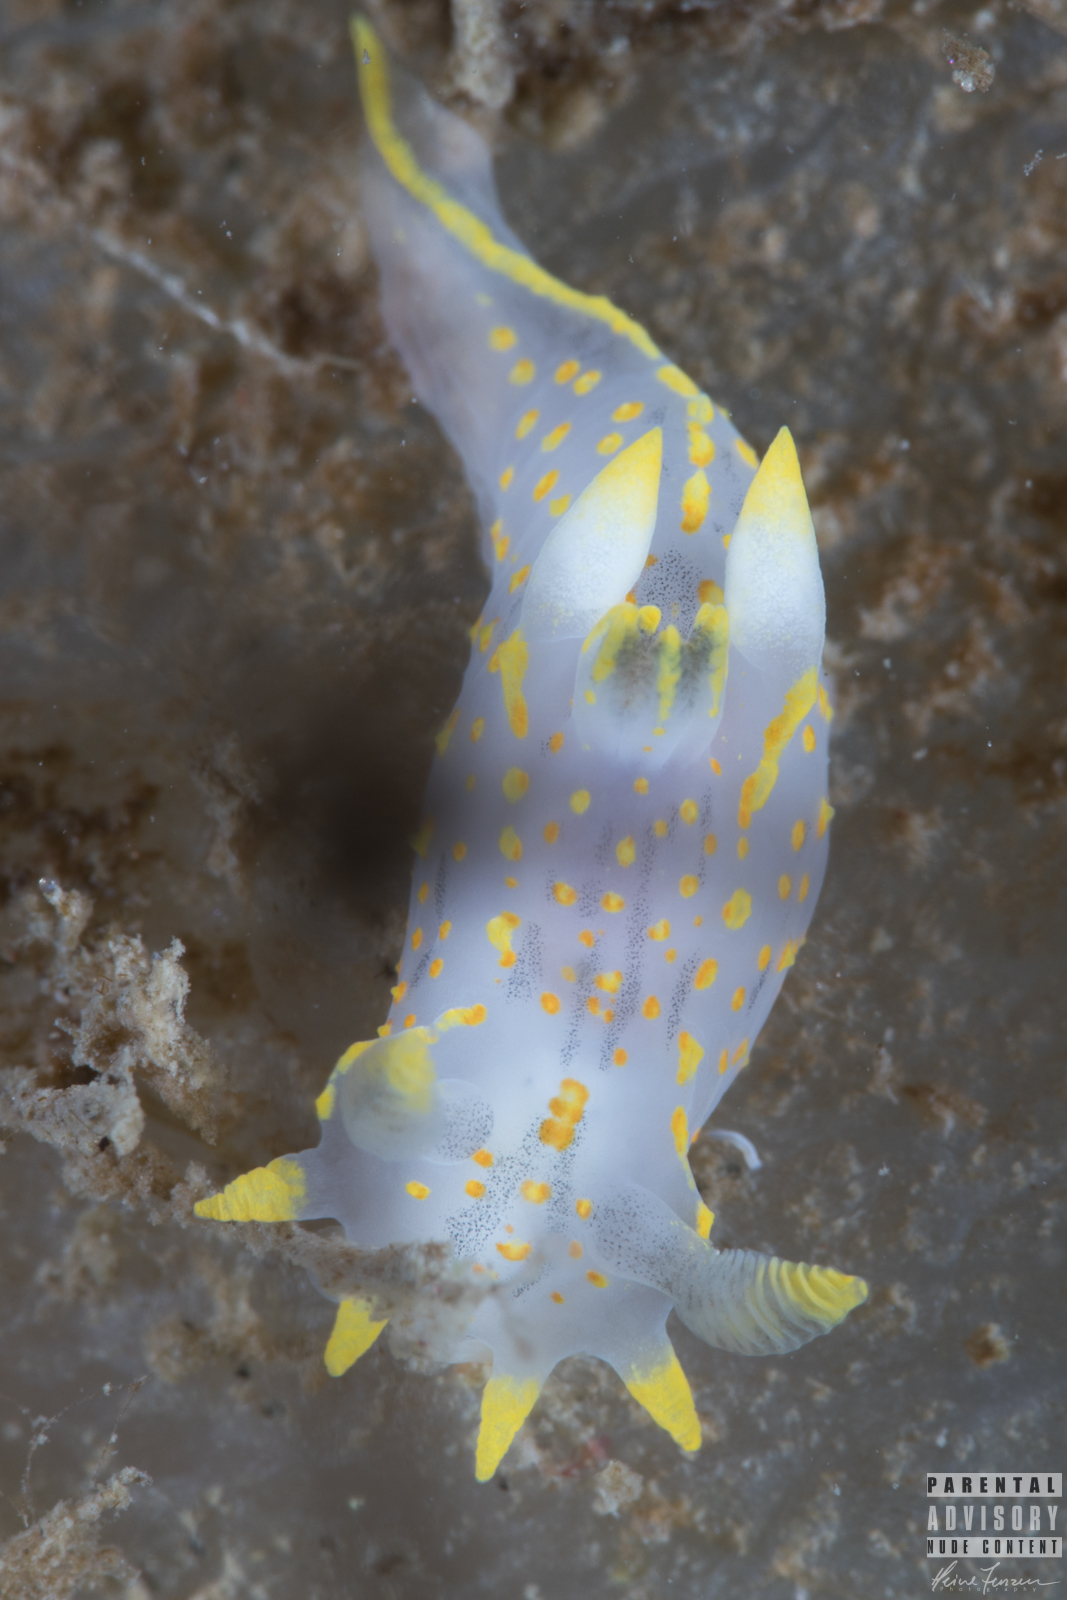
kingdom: Animalia
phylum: Mollusca
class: Gastropoda
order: Nudibranchia
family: Polyceridae
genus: Polycera
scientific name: Polycera quadrilineata
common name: Four-striped polycera
